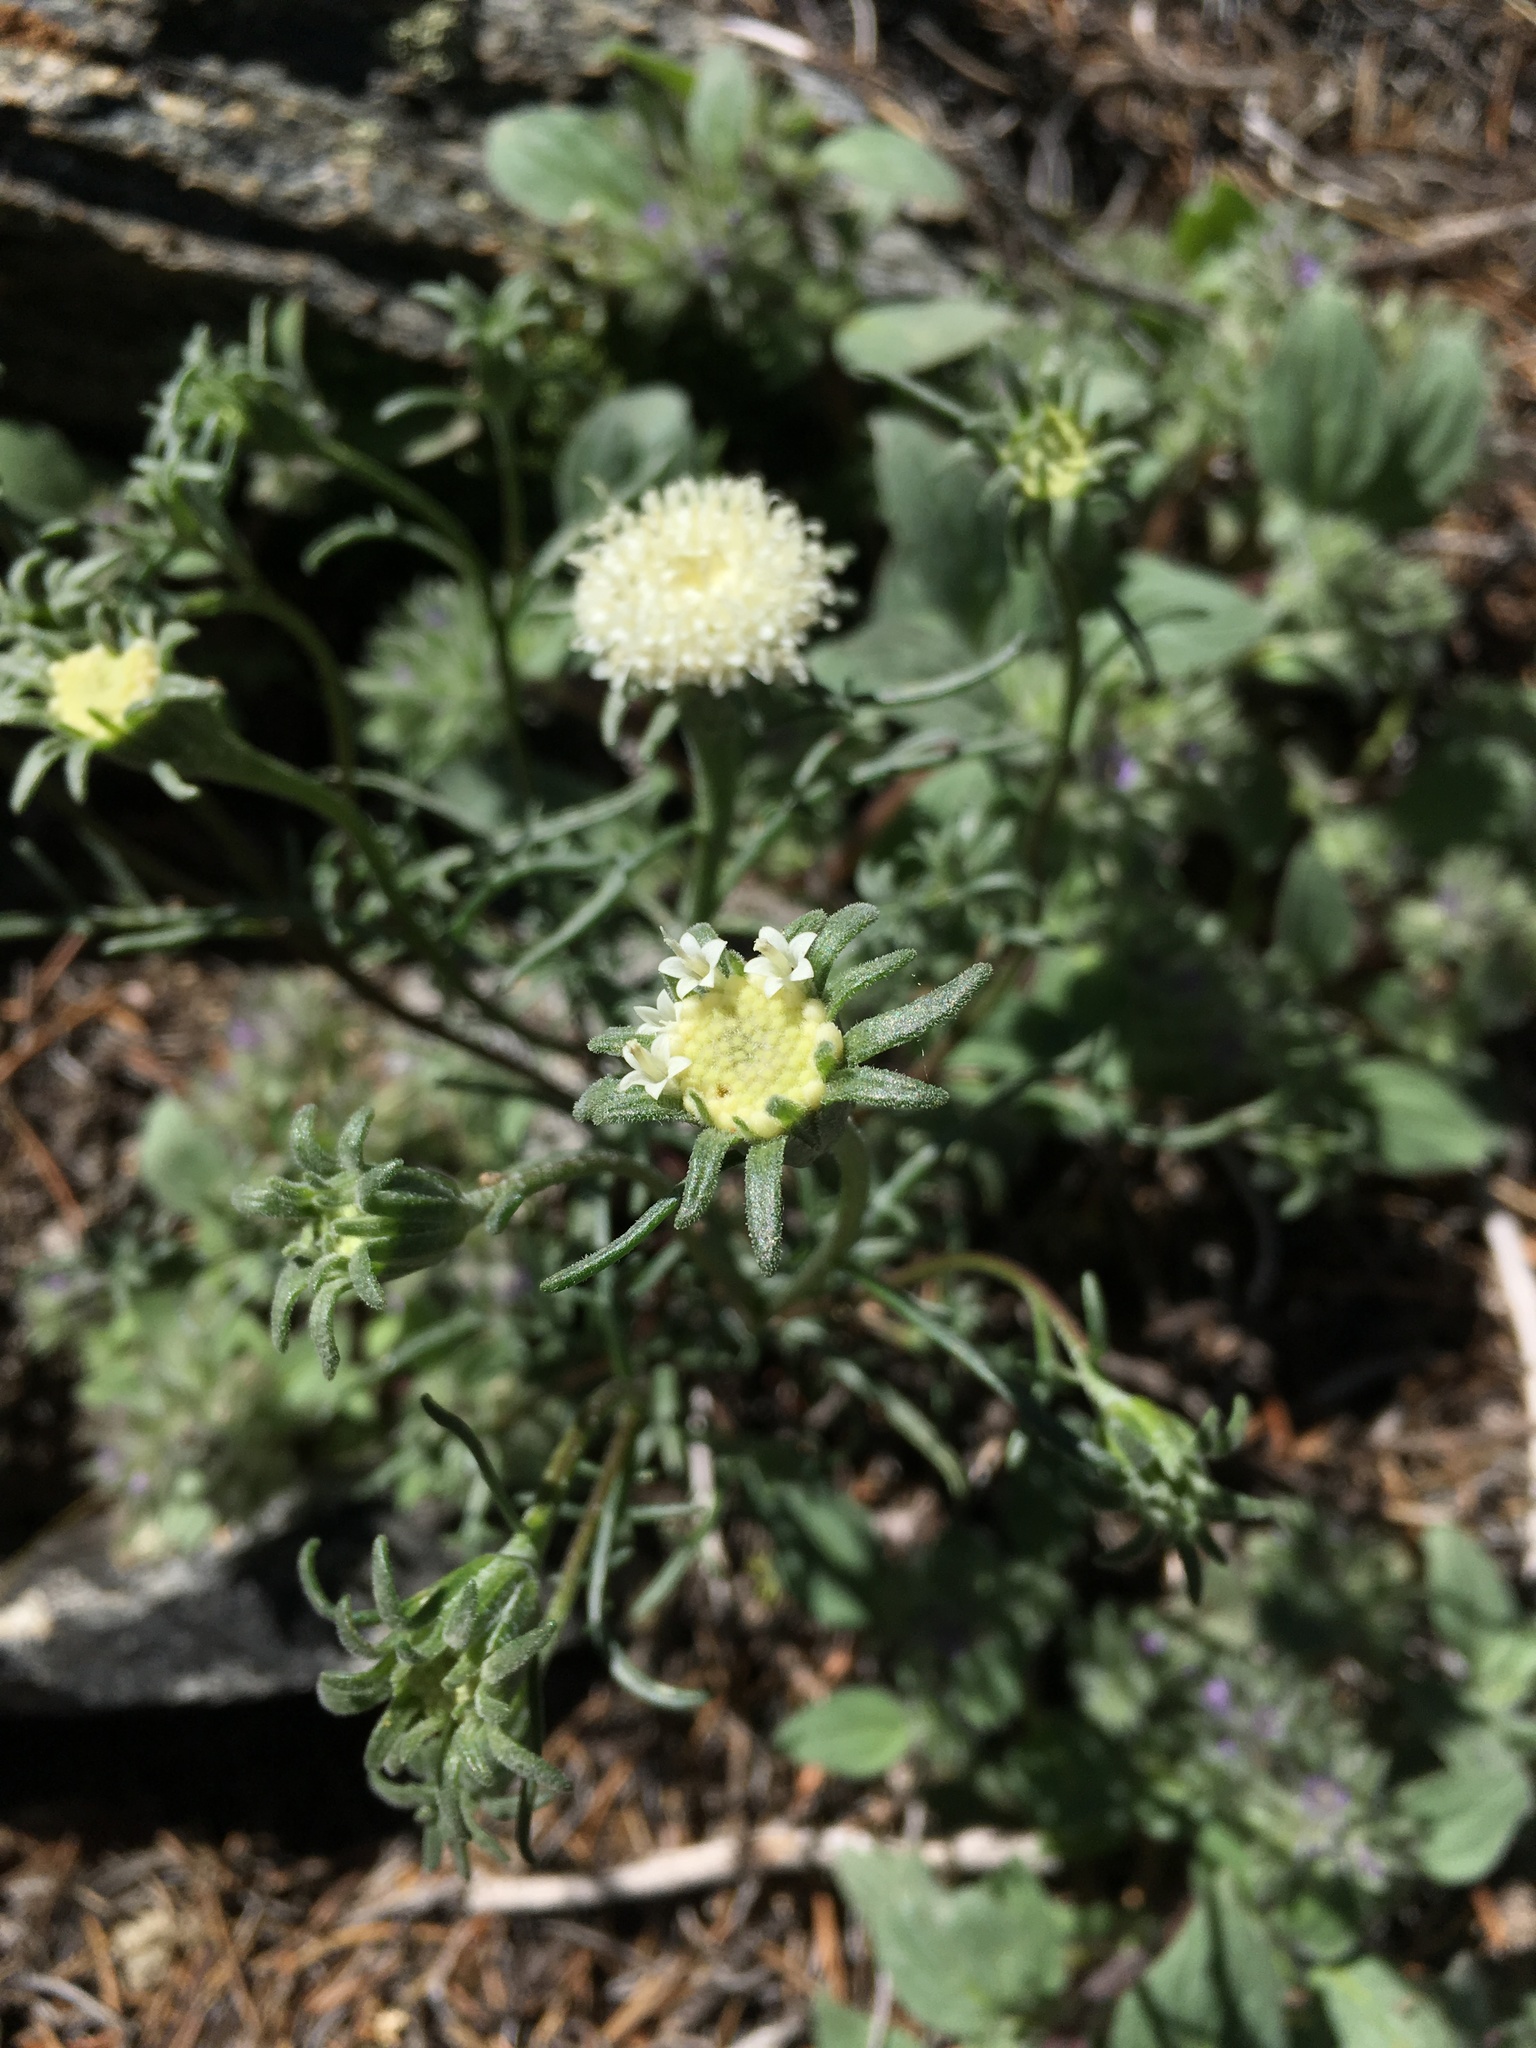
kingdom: Plantae
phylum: Tracheophyta
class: Magnoliopsida
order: Asterales
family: Asteraceae
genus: Chaenactis
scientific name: Chaenactis xantiana
